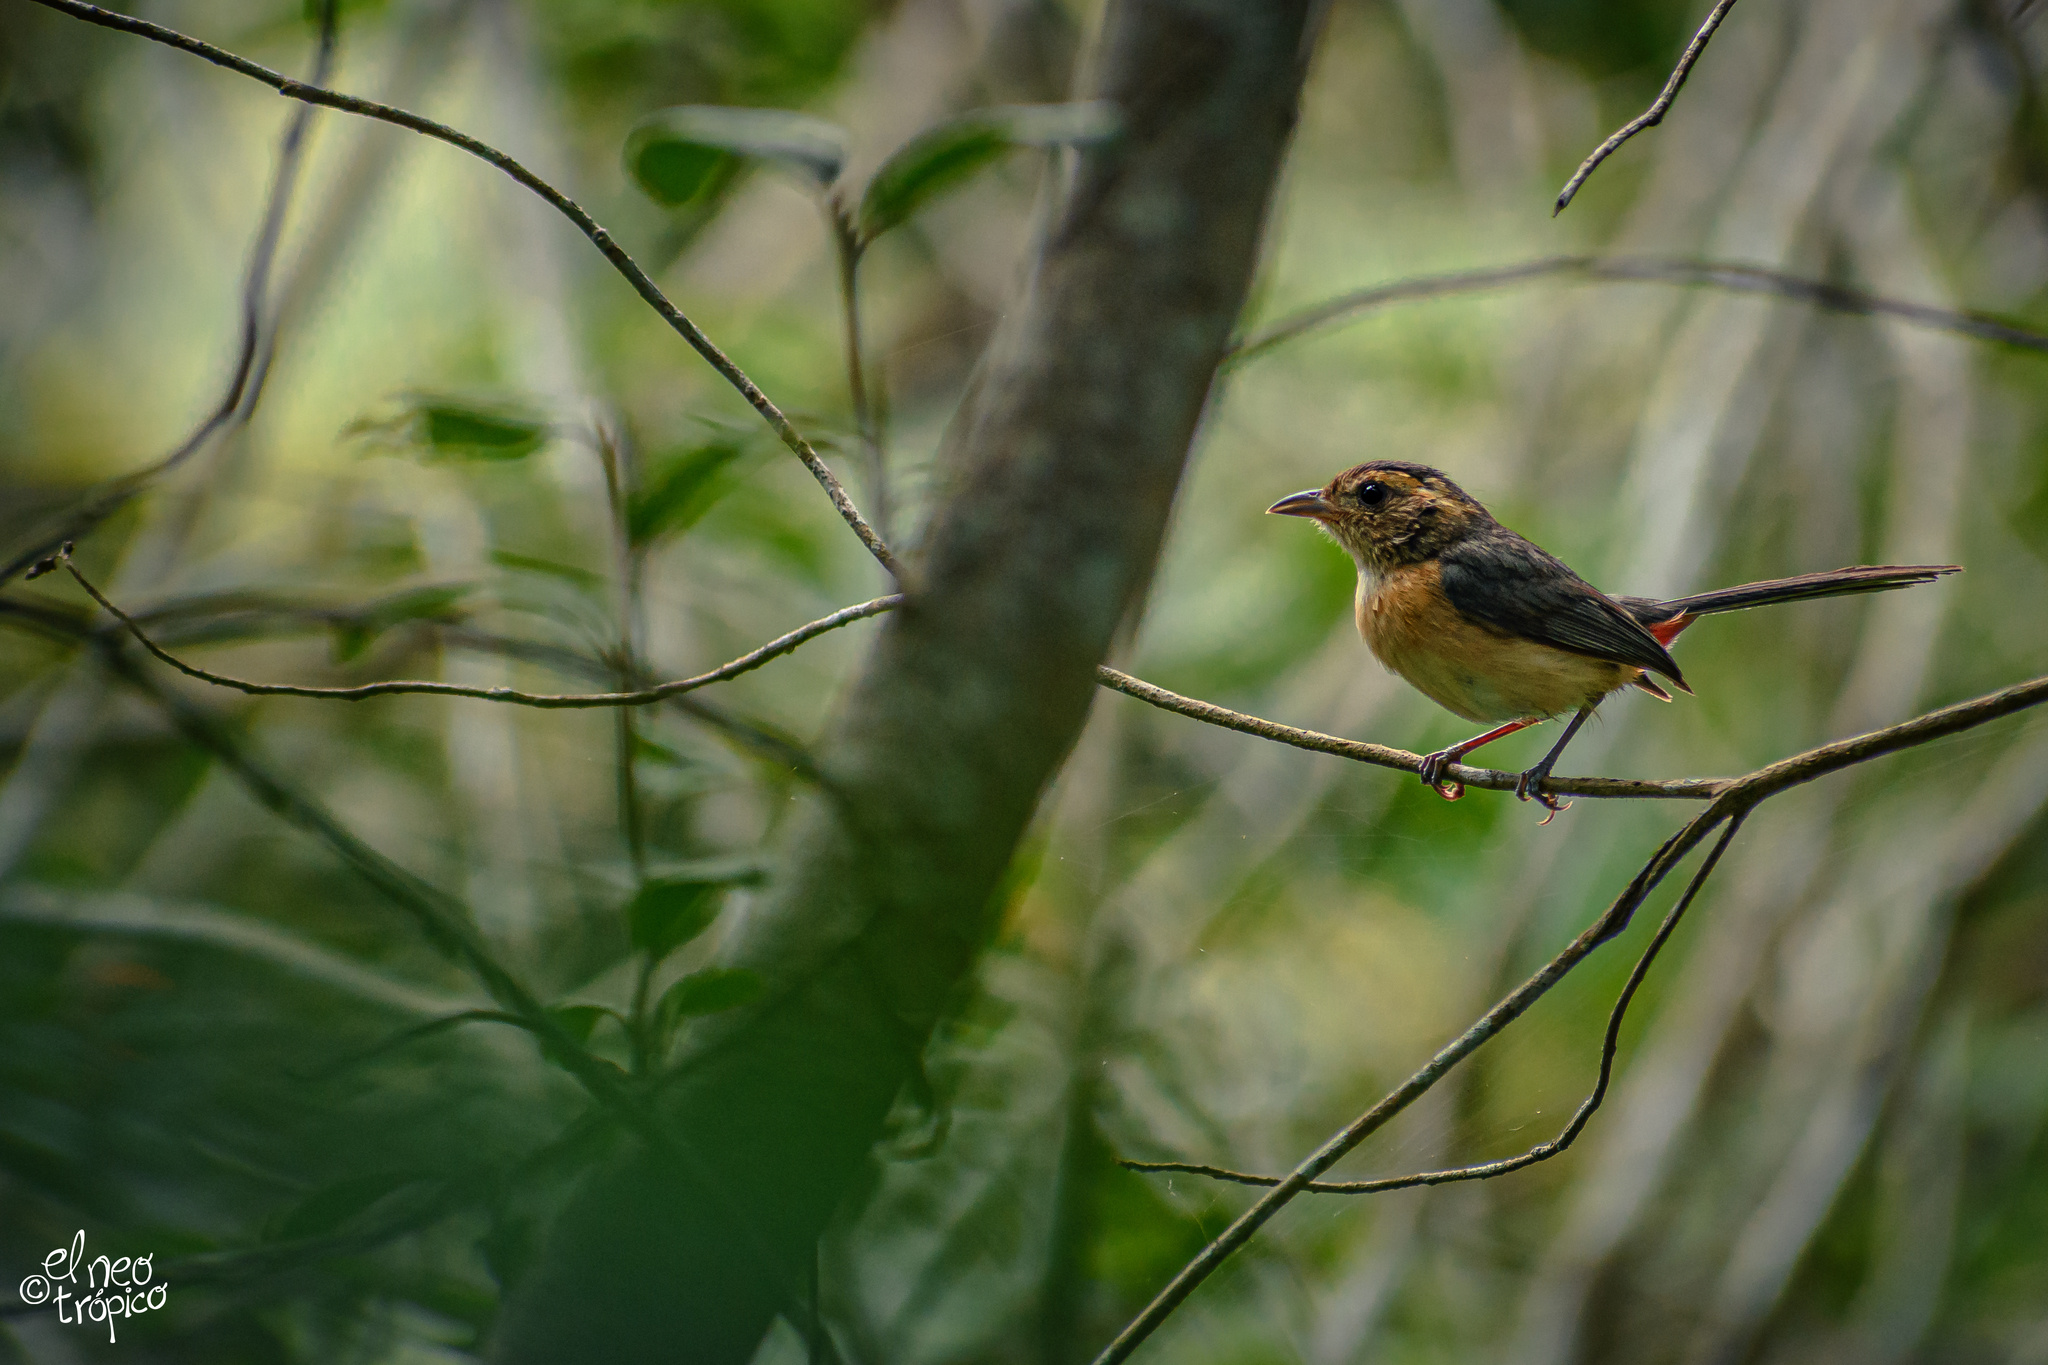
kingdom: Animalia
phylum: Chordata
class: Aves
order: Passeriformes
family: Cardinalidae
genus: Granatellus
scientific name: Granatellus venustus
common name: Red-breasted chat
